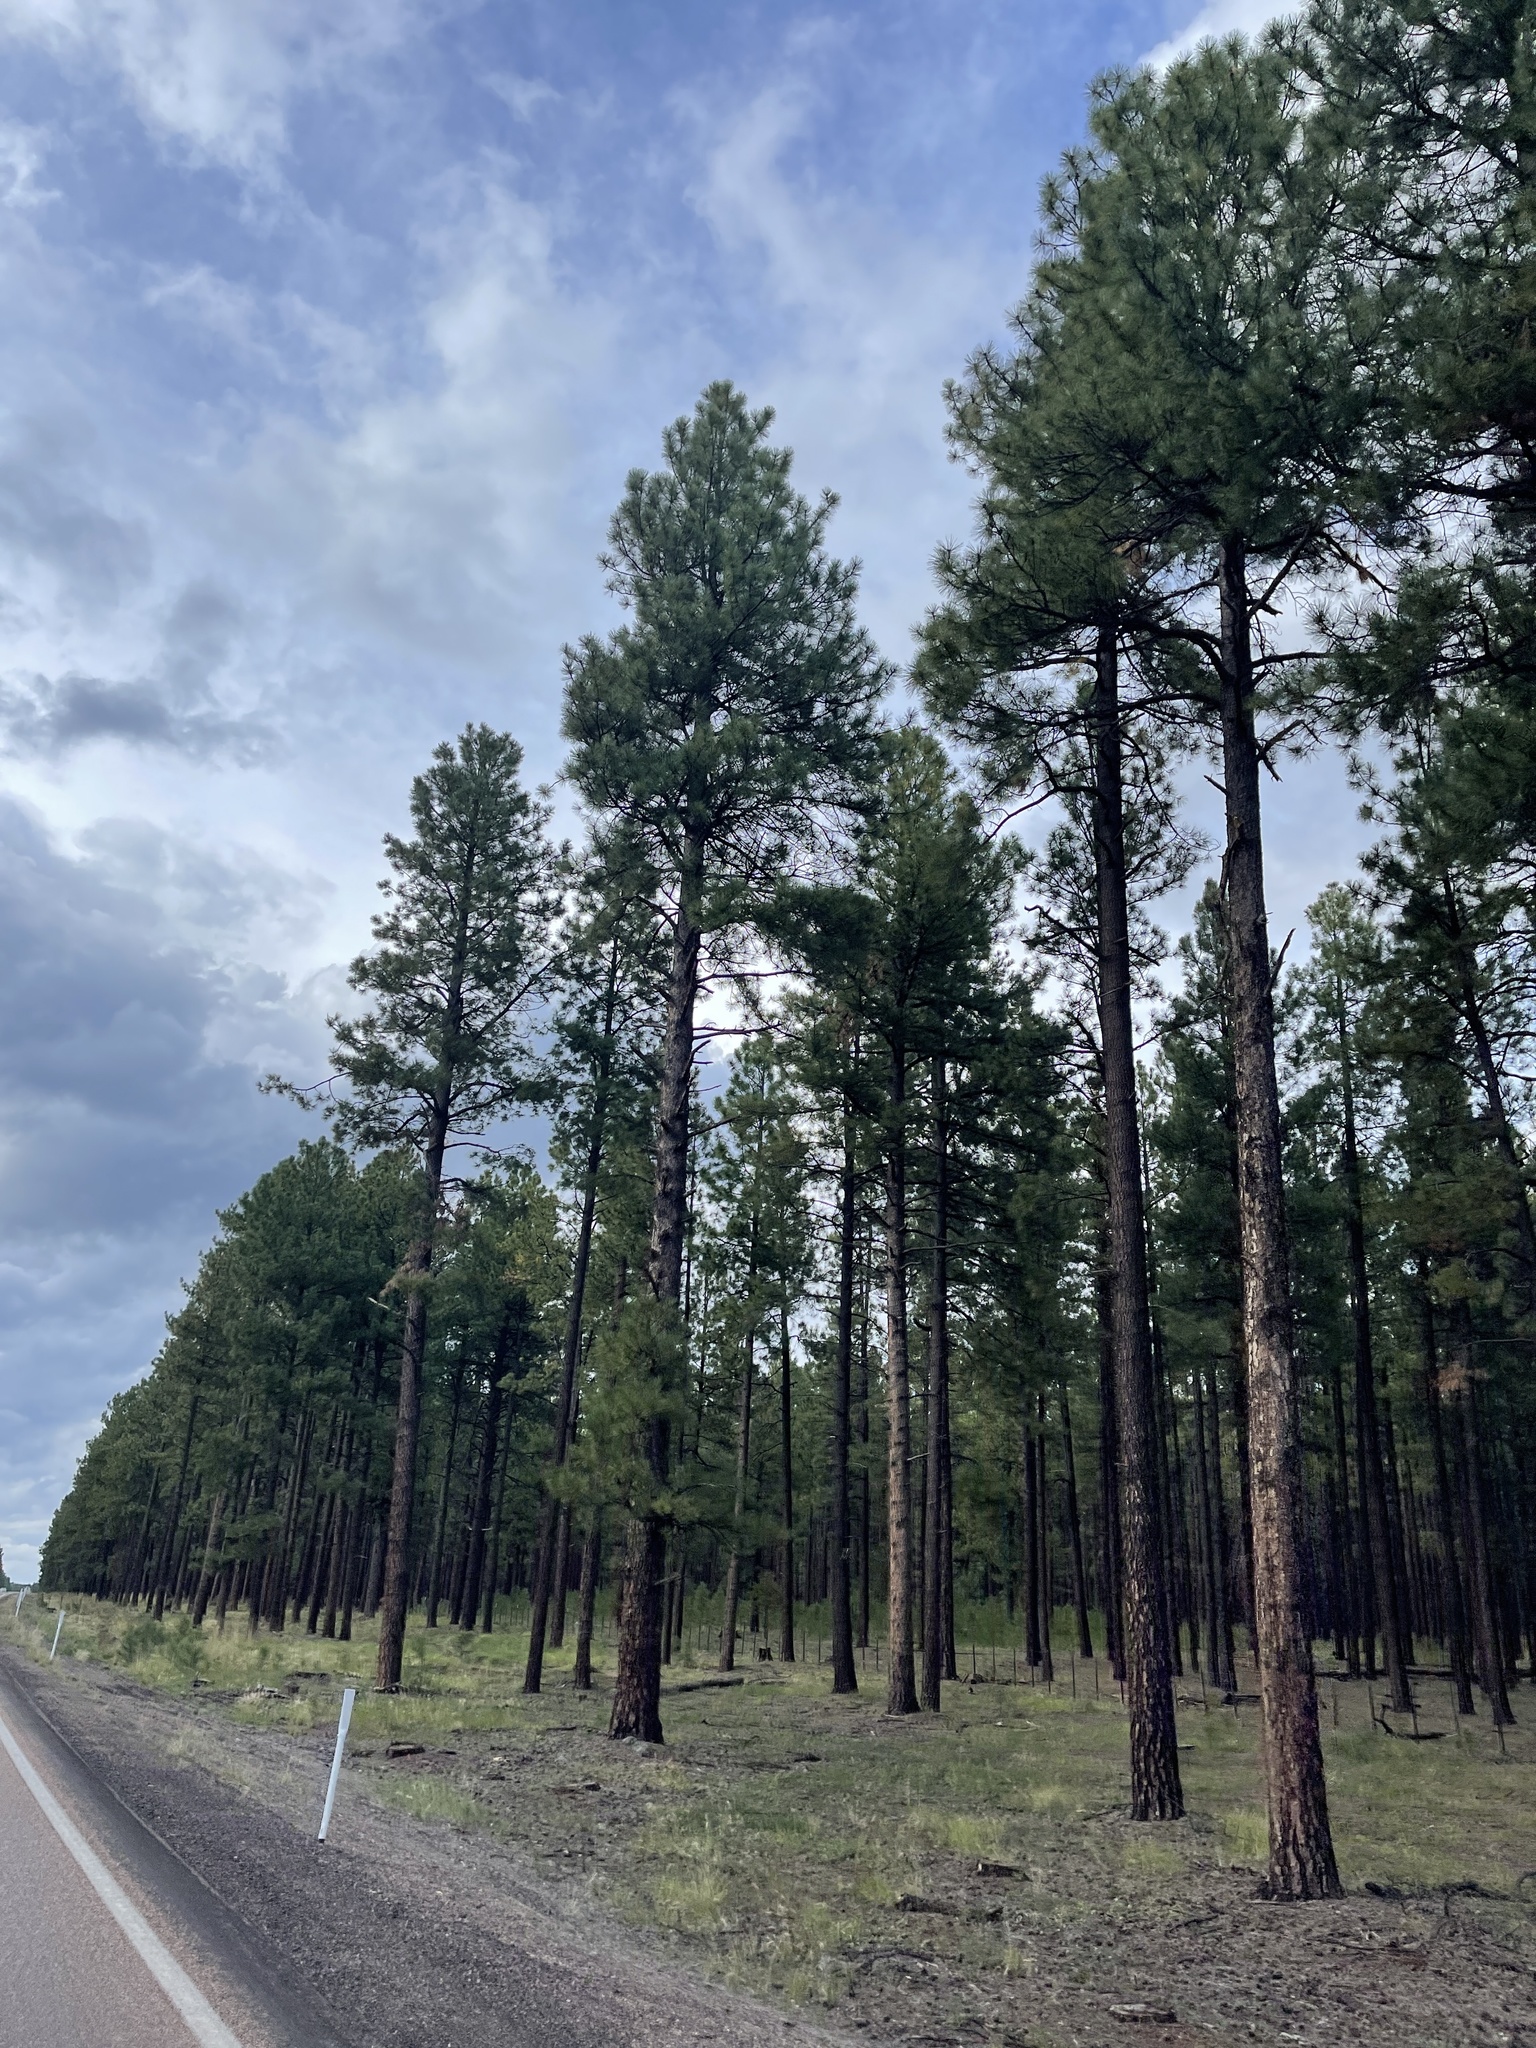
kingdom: Plantae
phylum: Tracheophyta
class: Pinopsida
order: Pinales
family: Pinaceae
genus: Pinus
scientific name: Pinus ponderosa
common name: Western yellow-pine
